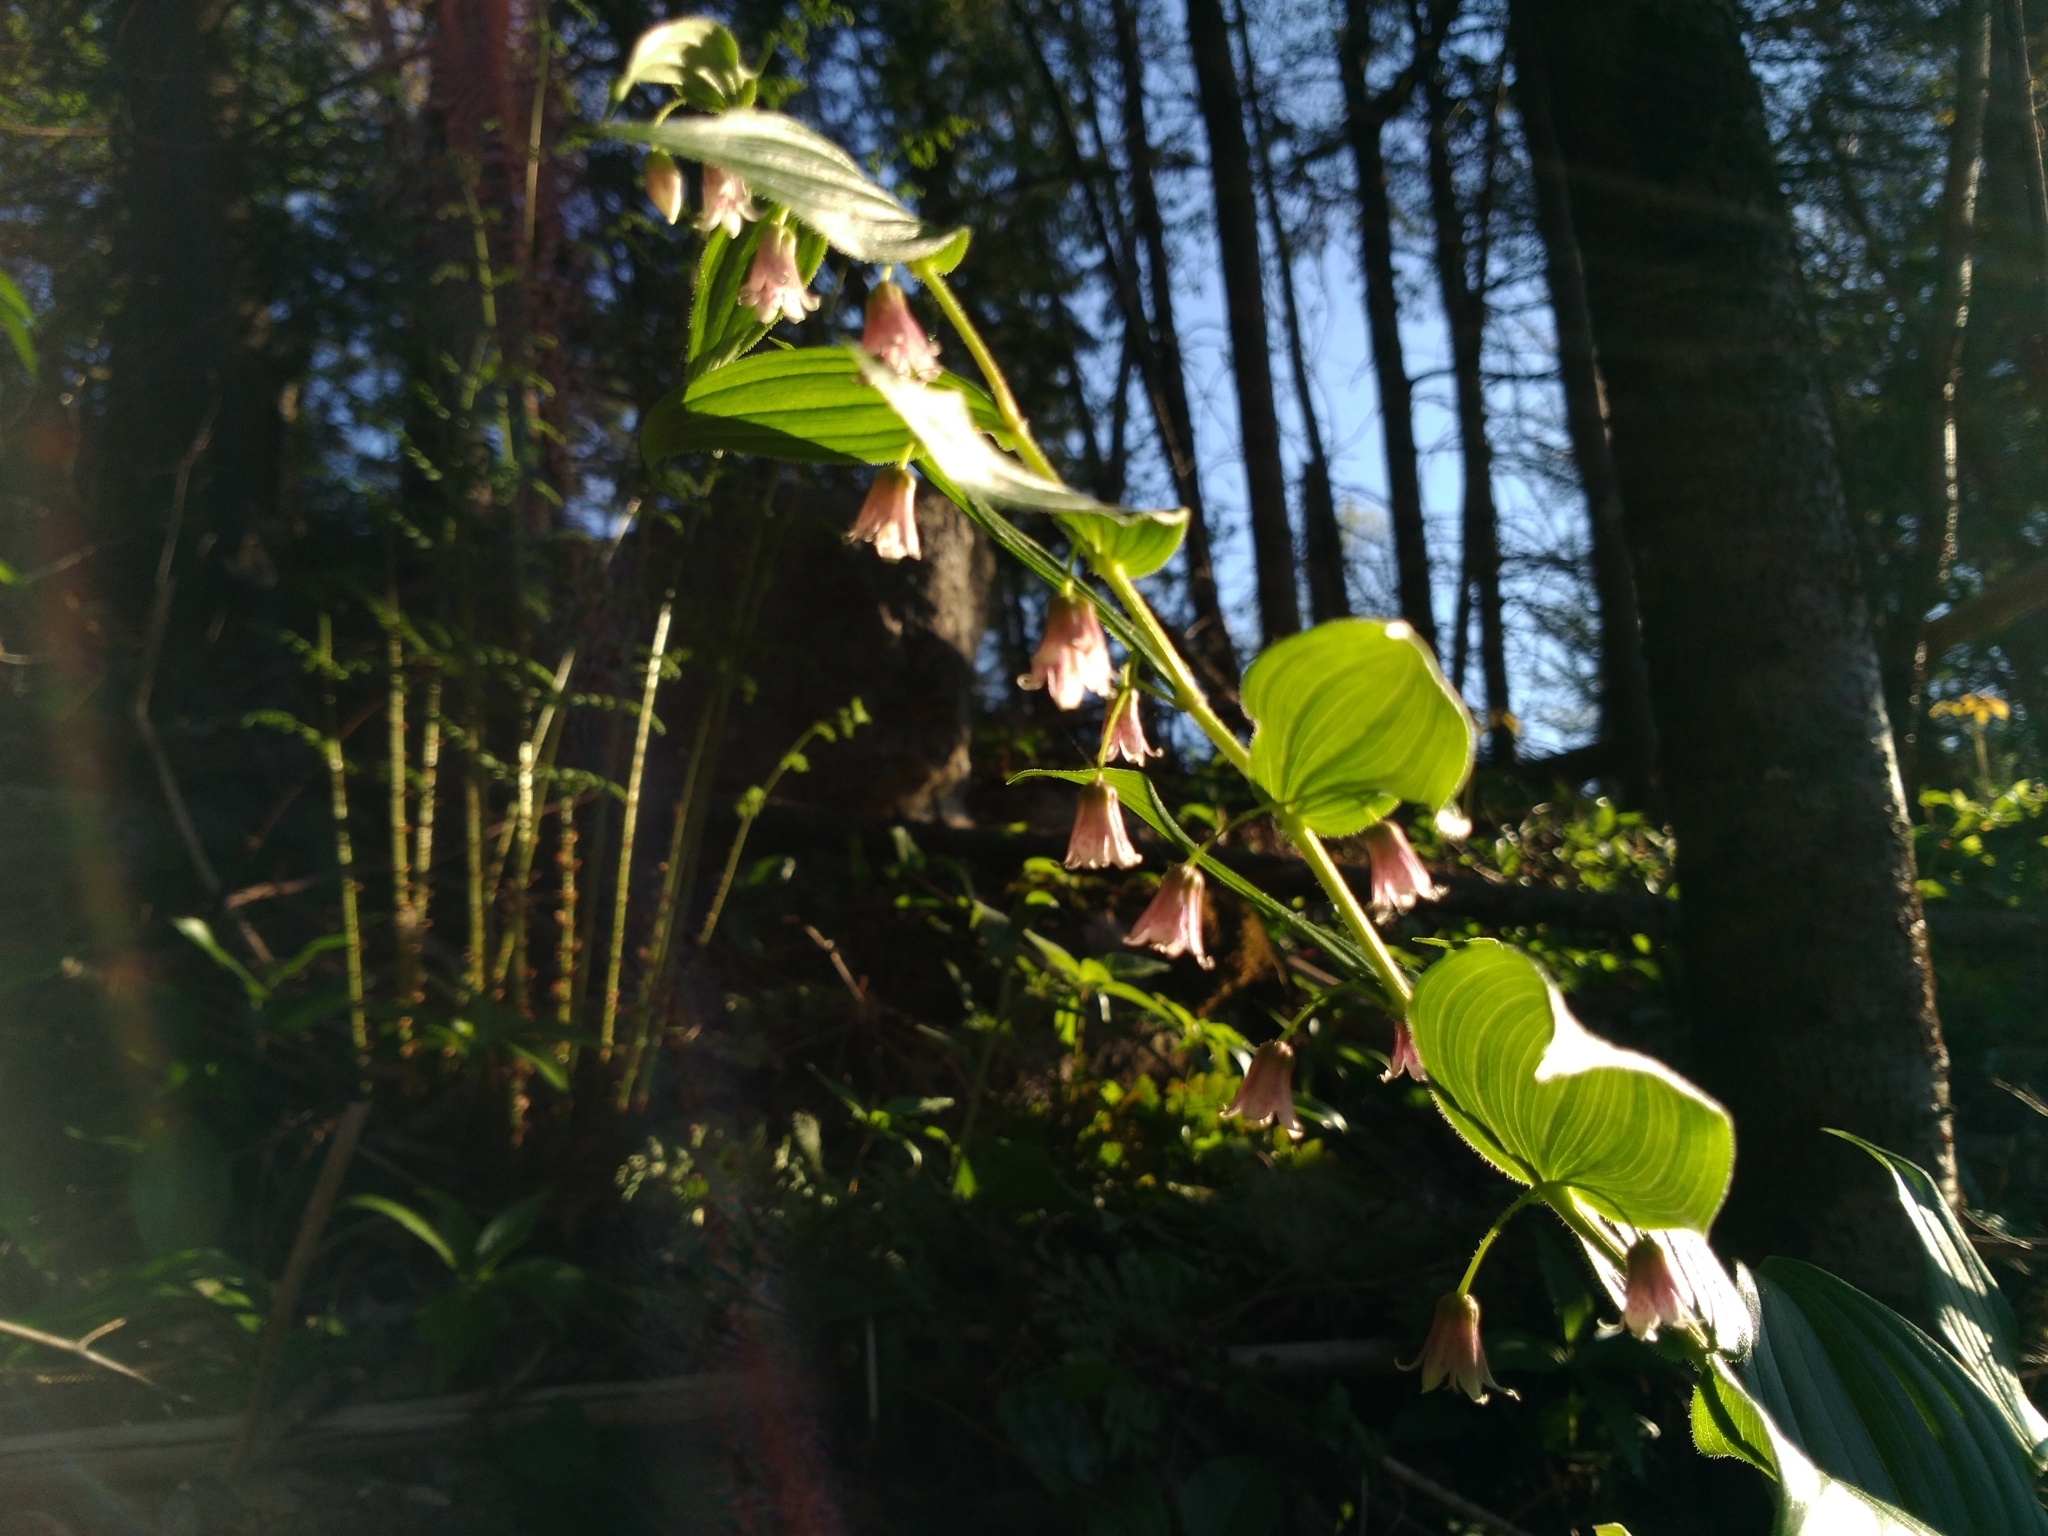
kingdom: Plantae
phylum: Tracheophyta
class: Liliopsida
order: Liliales
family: Liliaceae
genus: Streptopus
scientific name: Streptopus lanceolatus
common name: Rose mandarin
